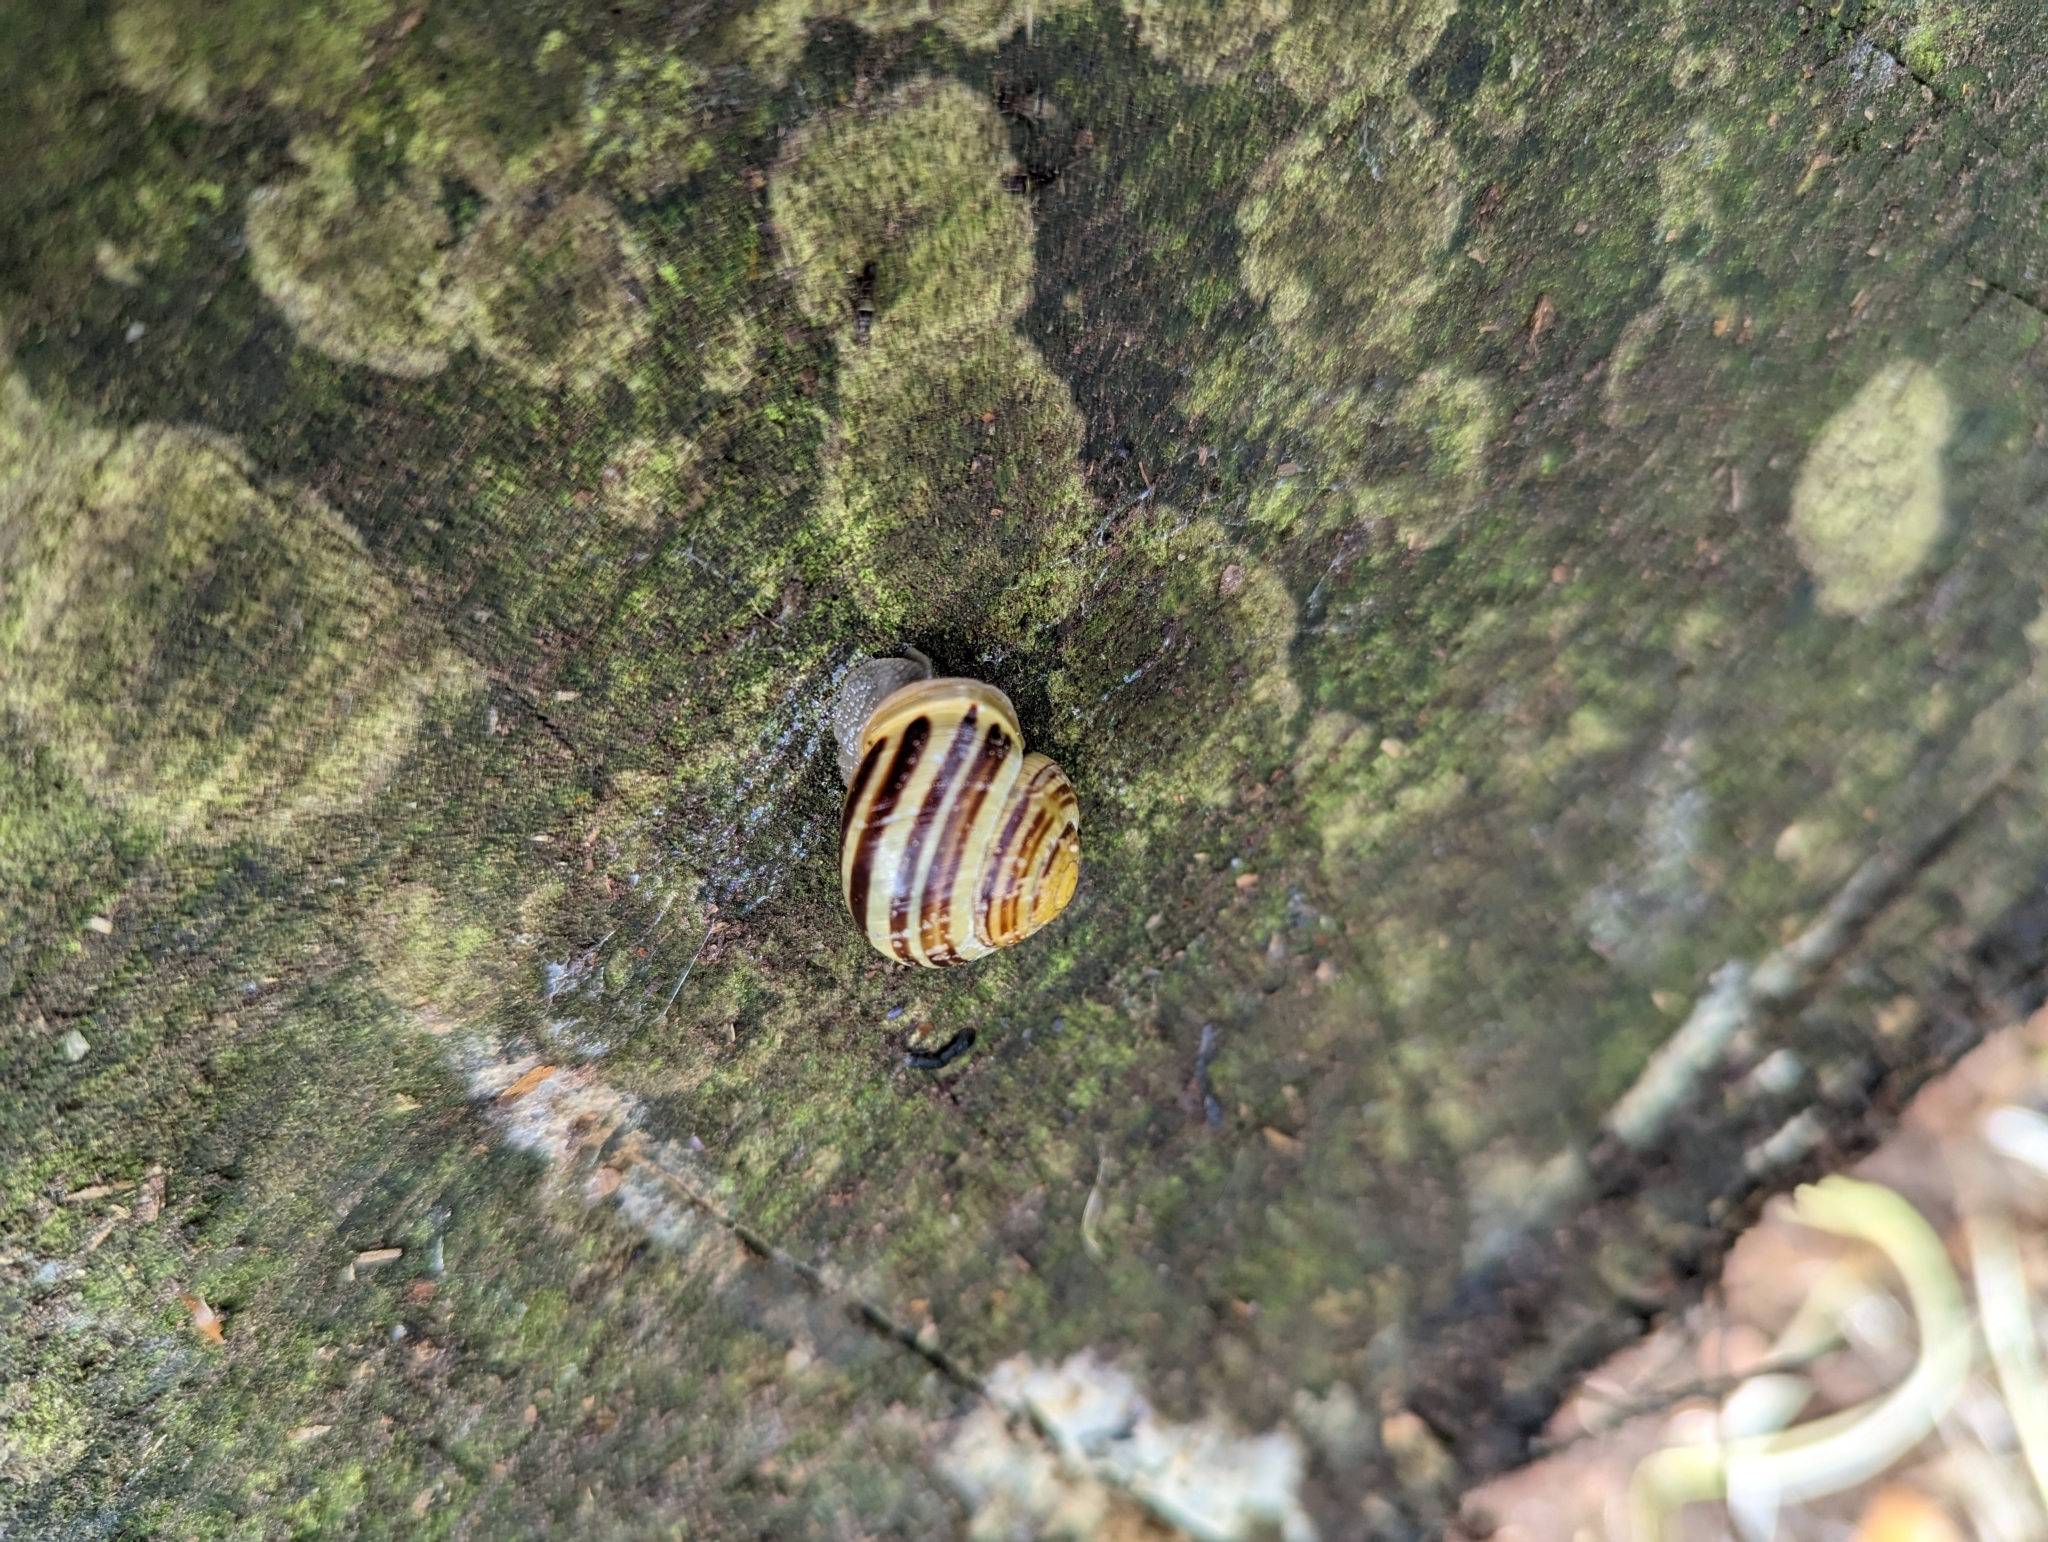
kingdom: Animalia
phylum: Mollusca
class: Gastropoda
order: Stylommatophora
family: Helicidae
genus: Cepaea
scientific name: Cepaea hortensis
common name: White-lip gardensnail
